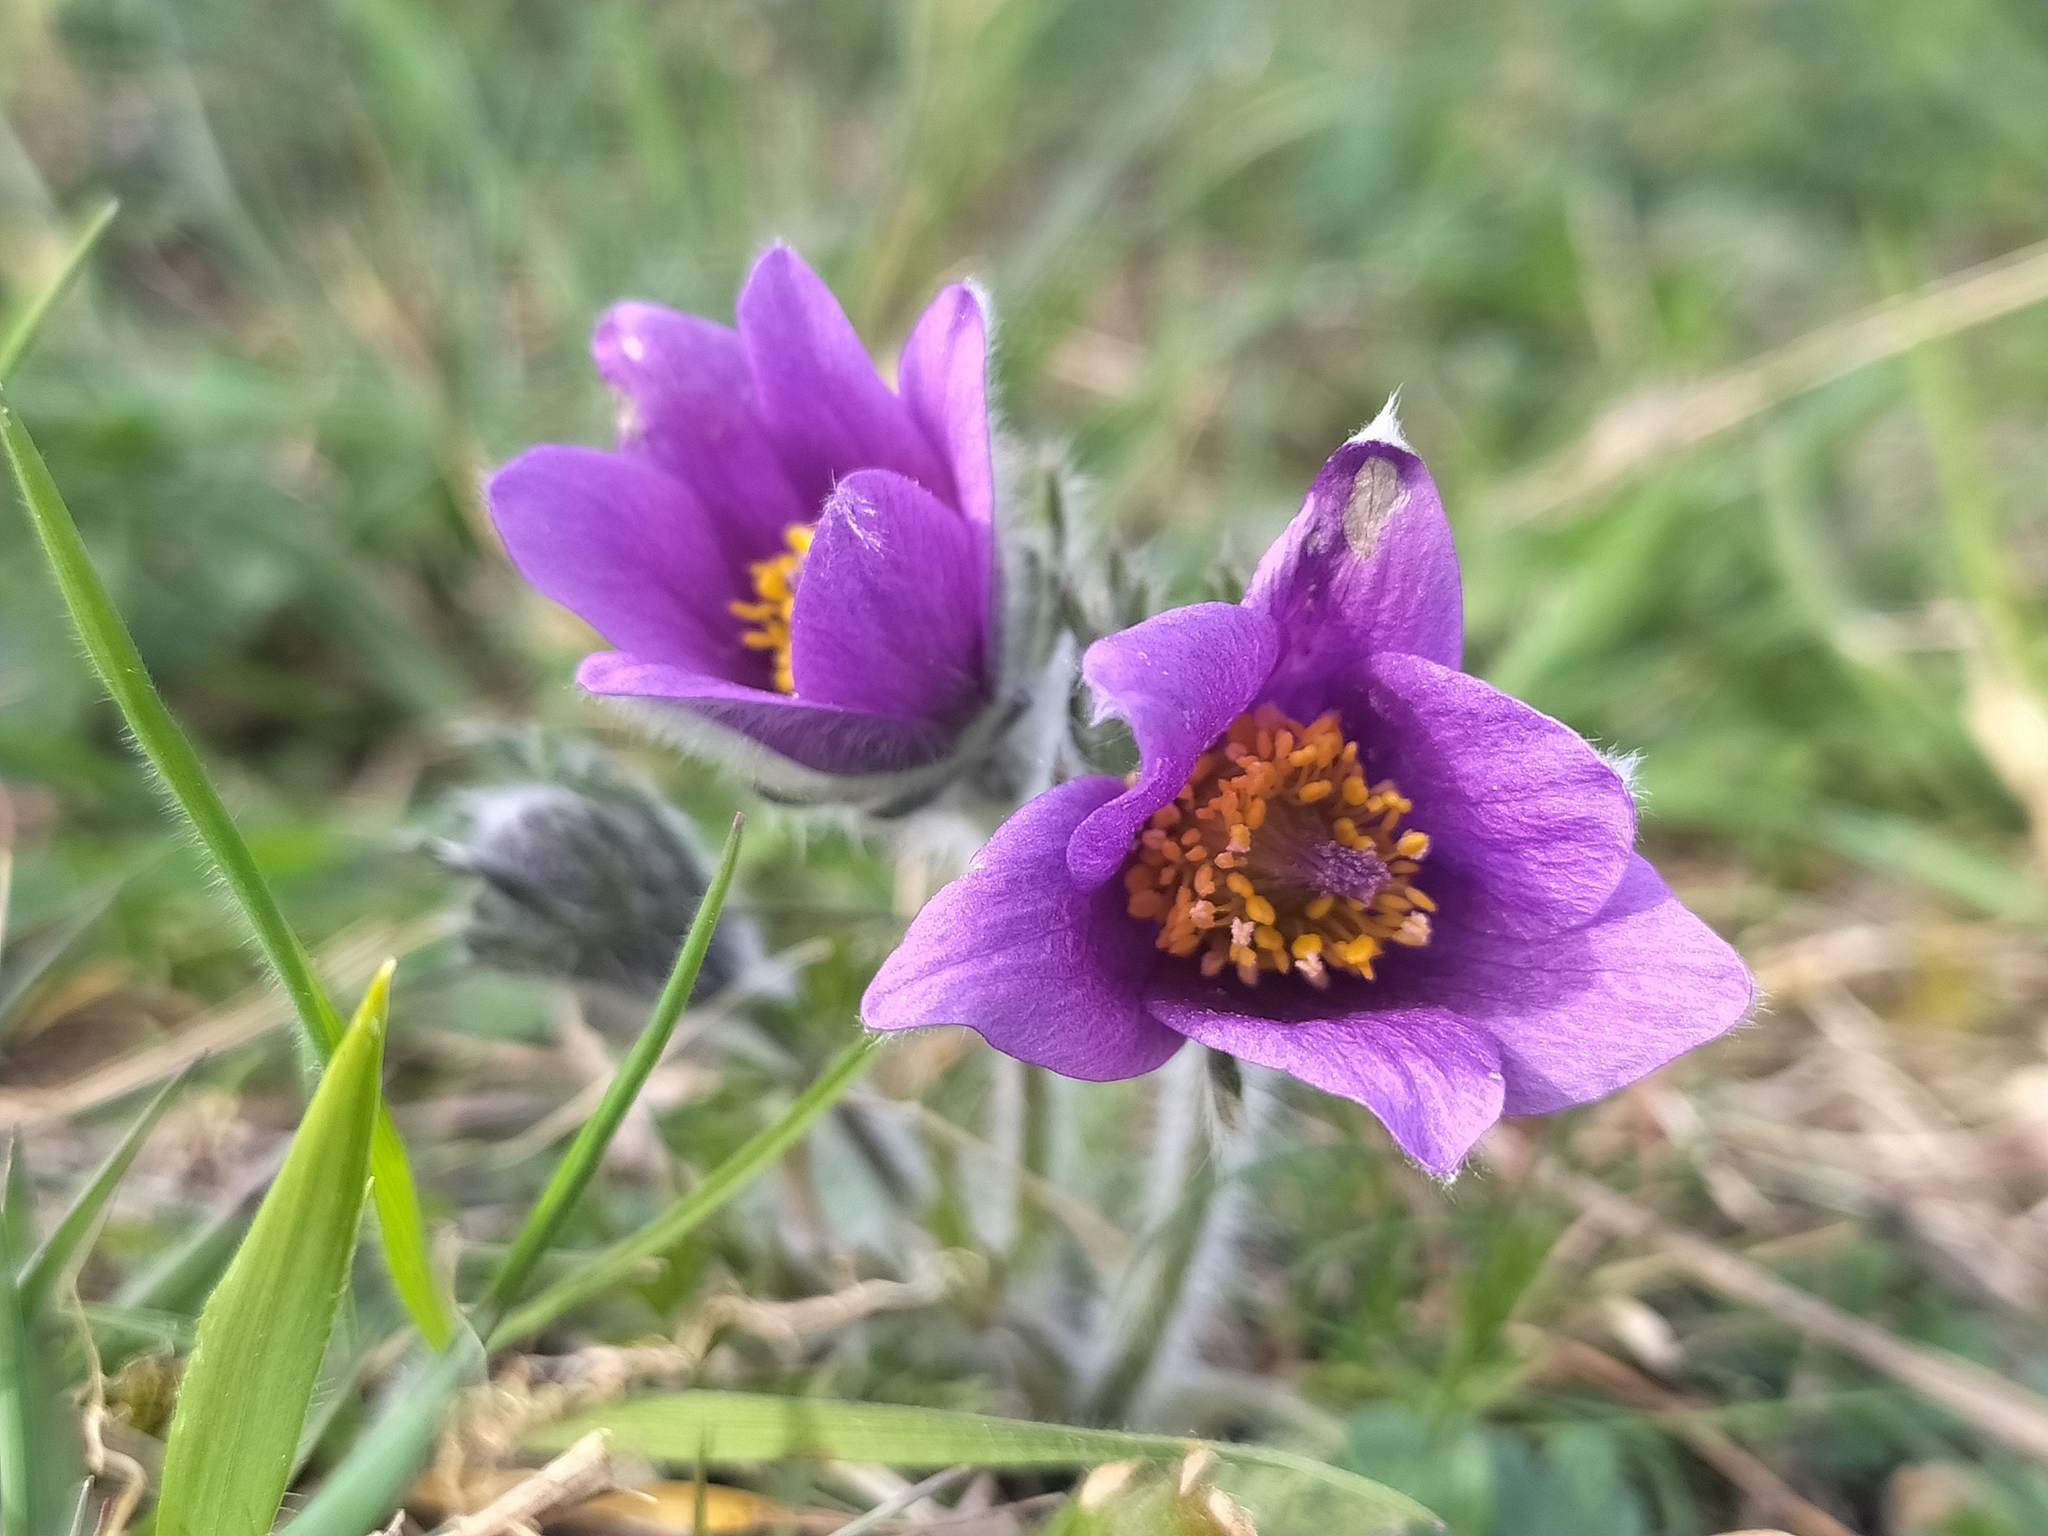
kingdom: Plantae
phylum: Tracheophyta
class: Magnoliopsida
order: Ranunculales
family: Ranunculaceae
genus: Pulsatilla
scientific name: Pulsatilla vulgaris
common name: Pasqueflower
